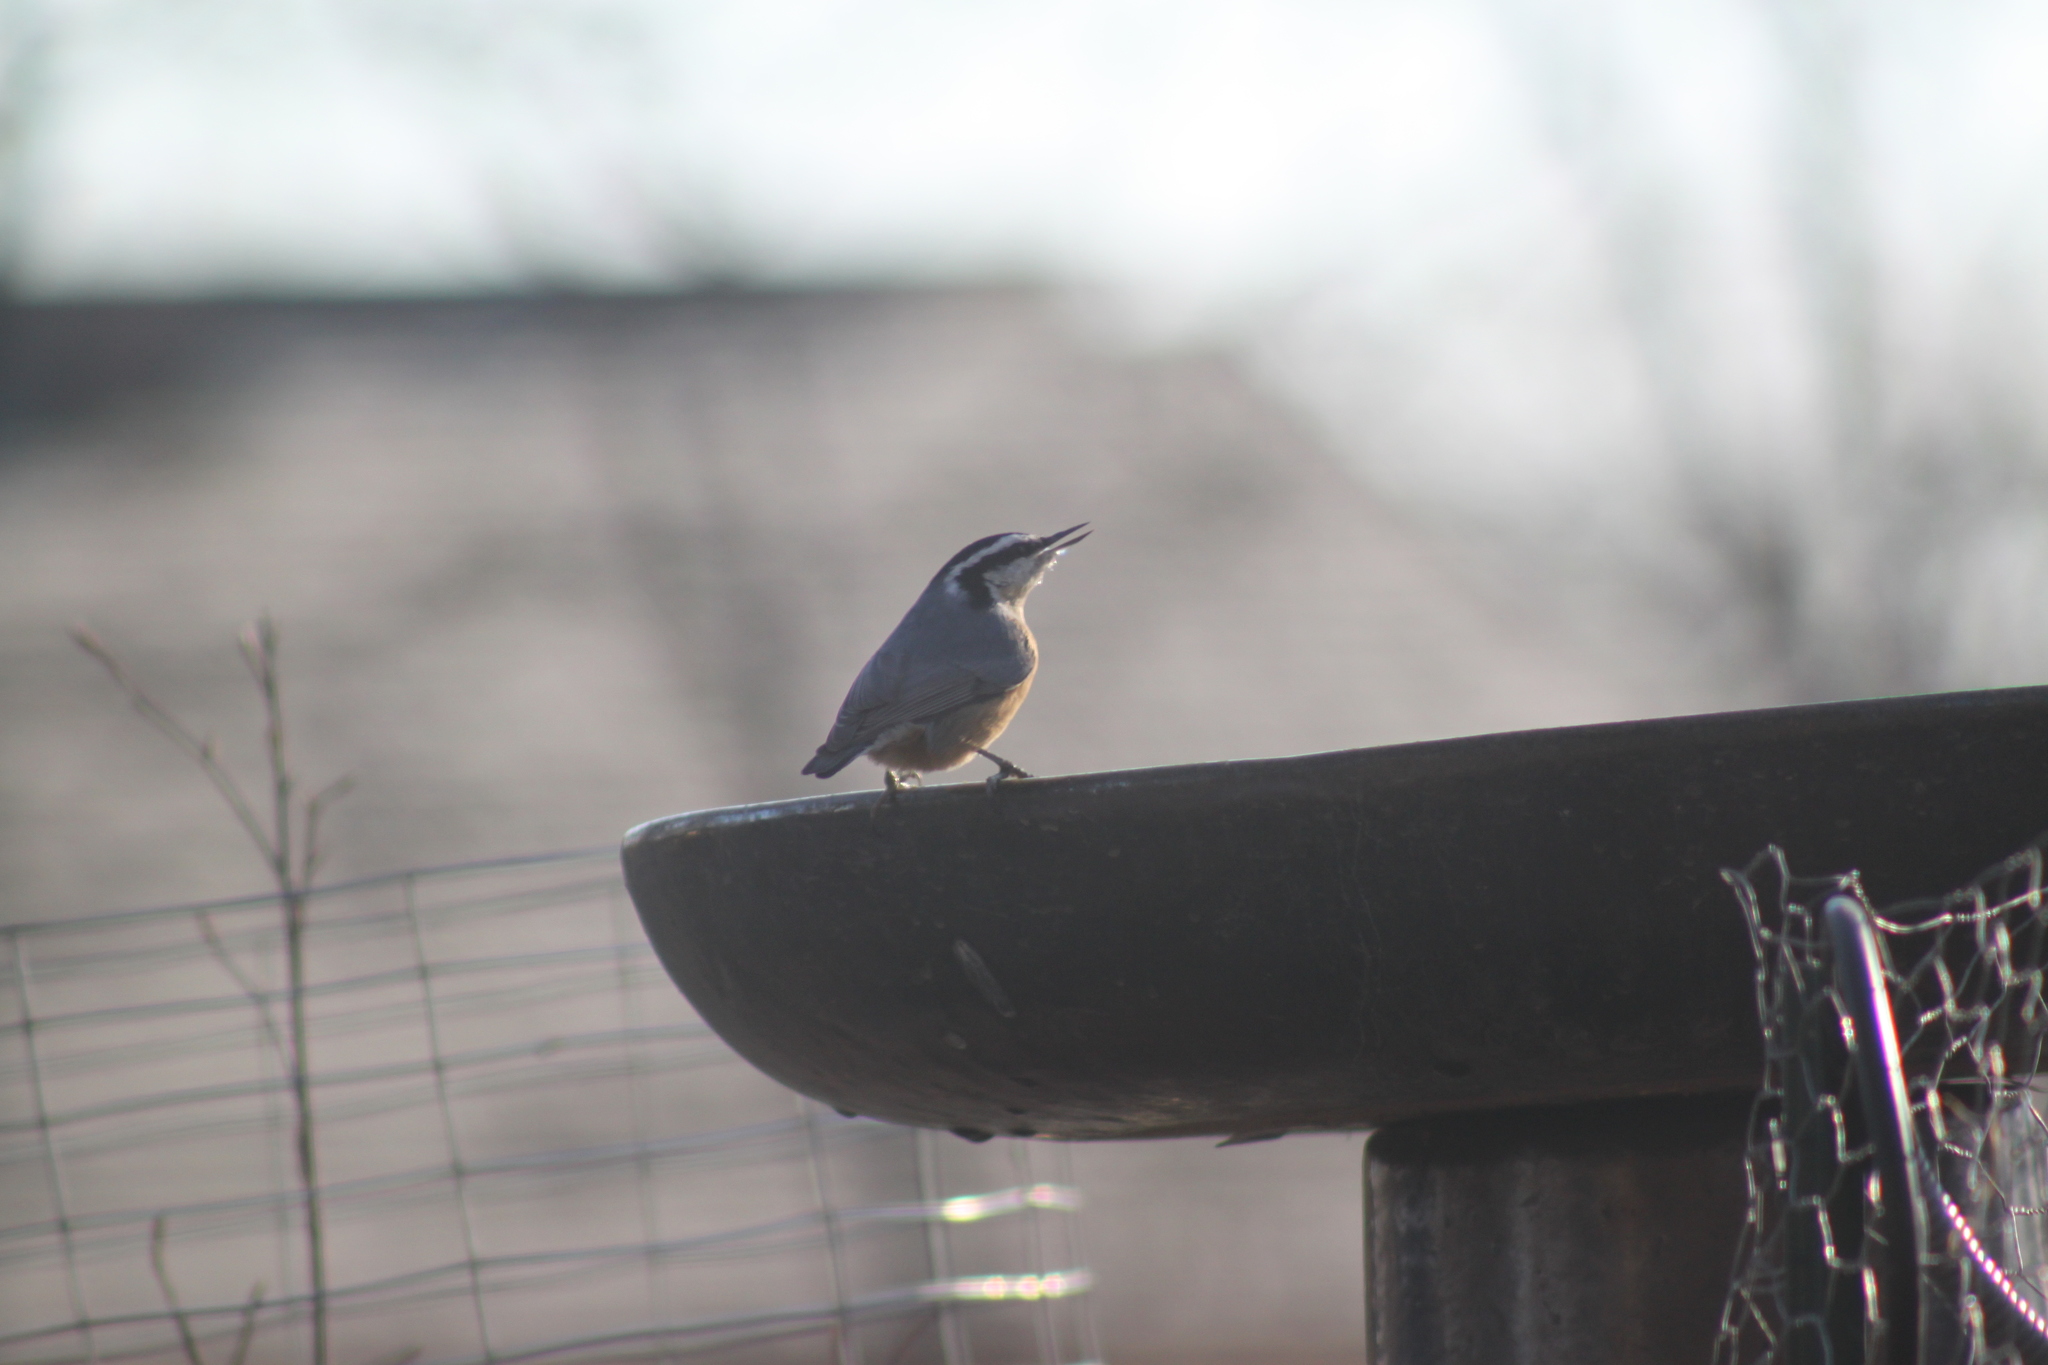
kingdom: Animalia
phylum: Chordata
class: Aves
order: Passeriformes
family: Sittidae
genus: Sitta
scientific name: Sitta canadensis
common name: Red-breasted nuthatch
